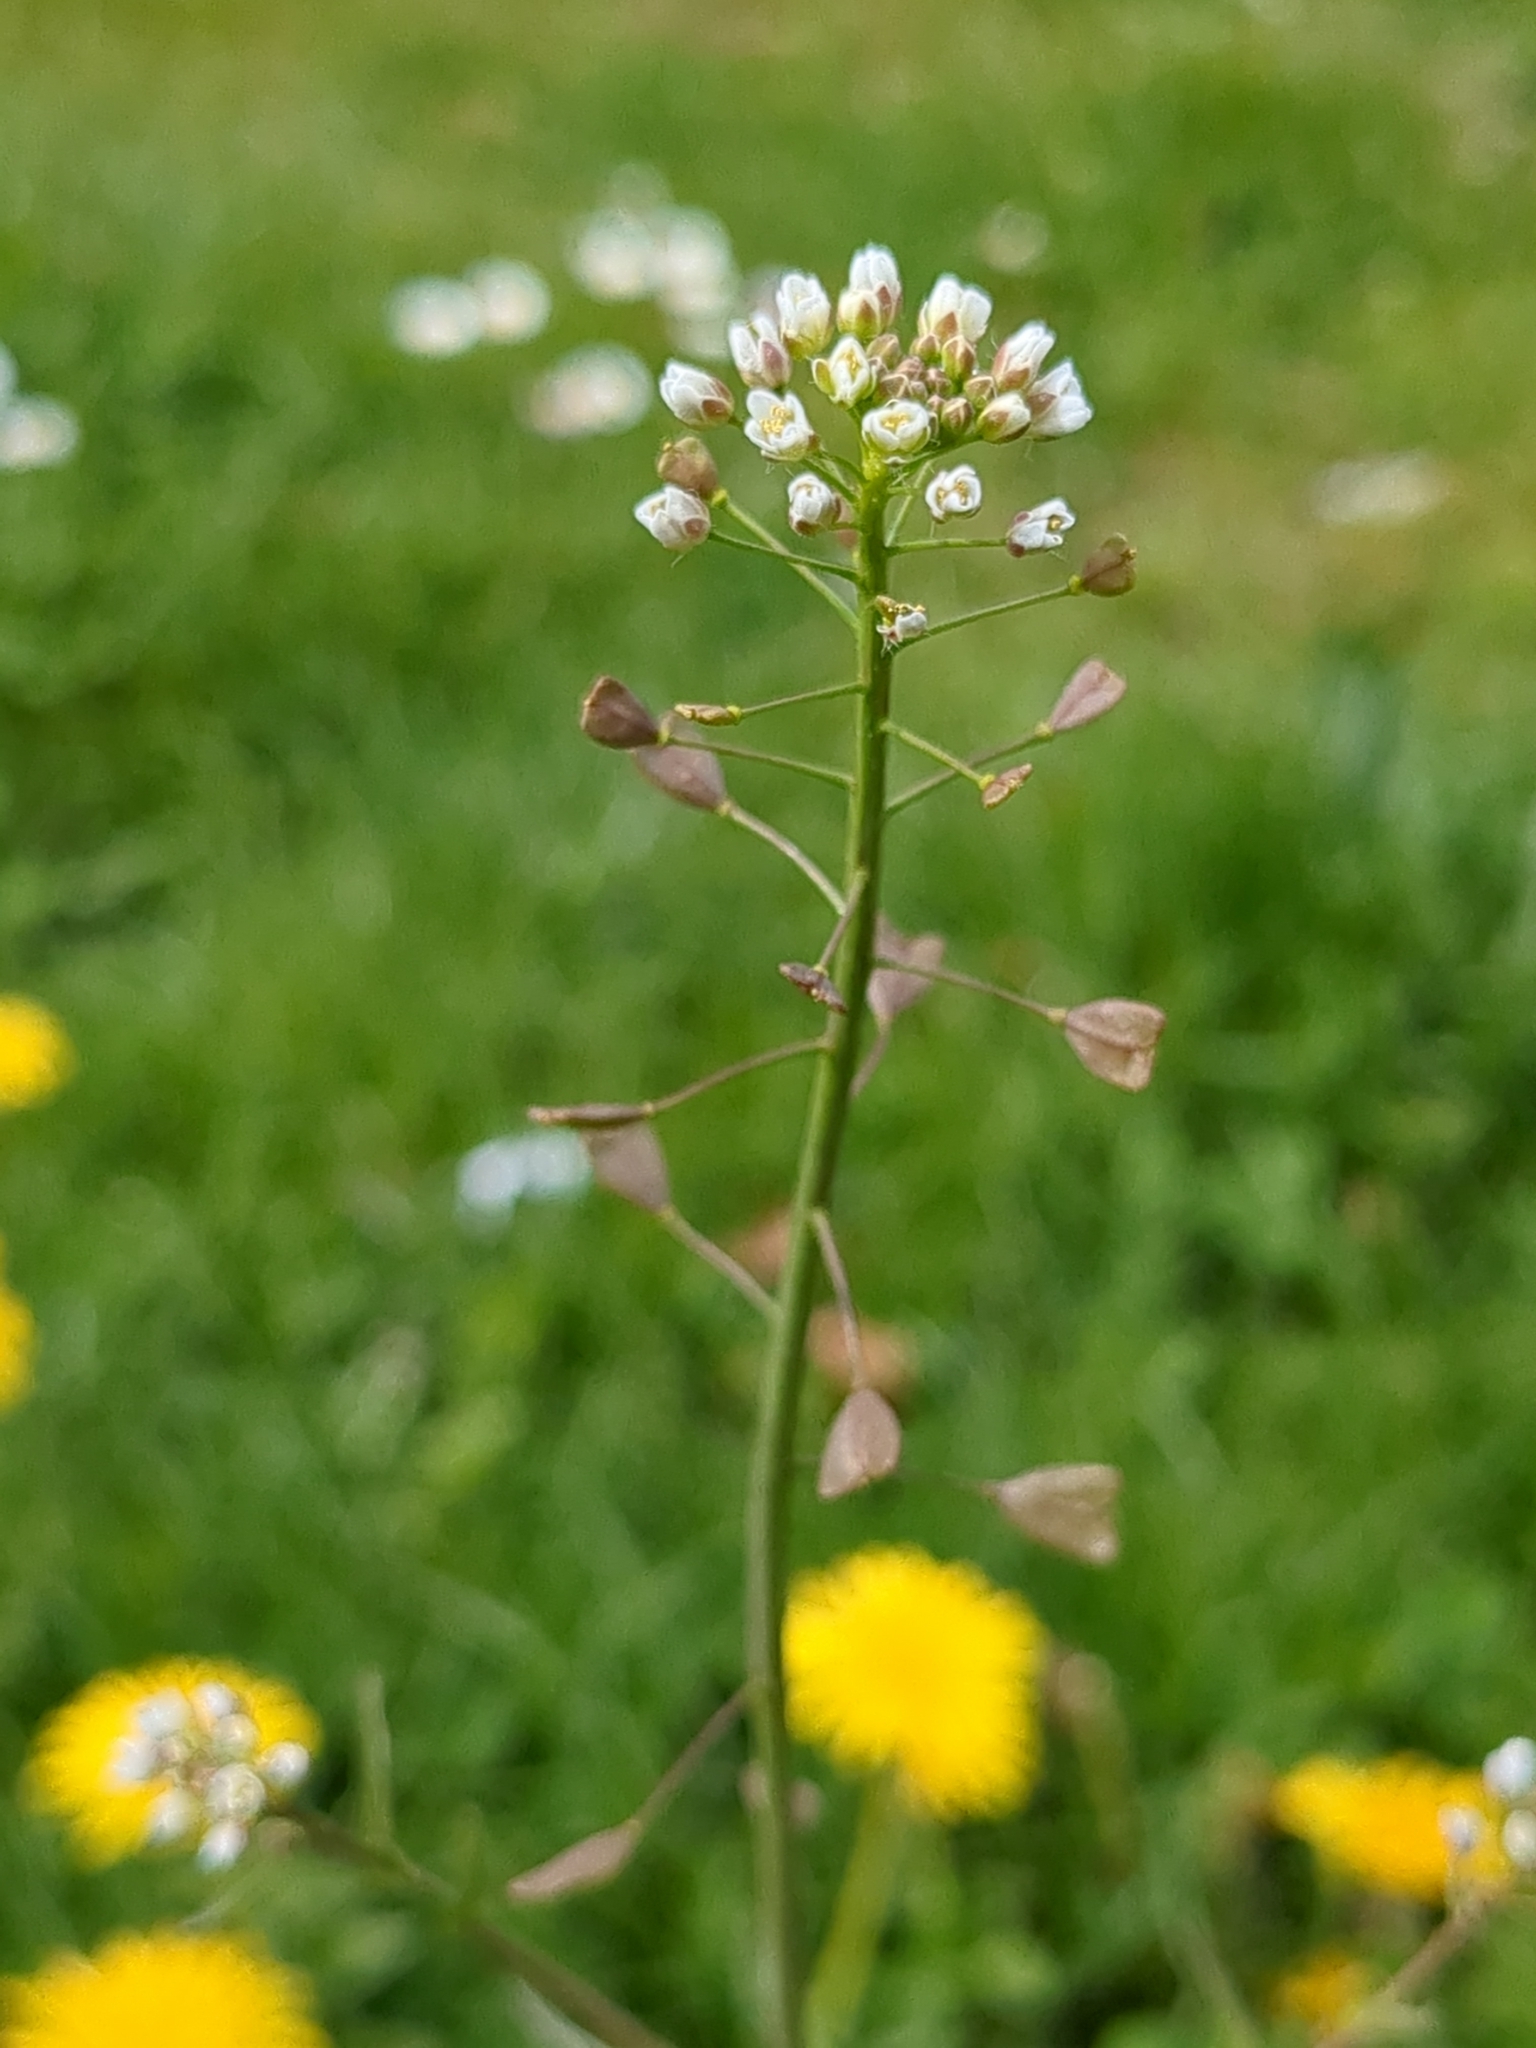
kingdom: Plantae
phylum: Tracheophyta
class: Magnoliopsida
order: Brassicales
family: Brassicaceae
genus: Capsella
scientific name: Capsella bursa-pastoris
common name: Shepherd's purse
